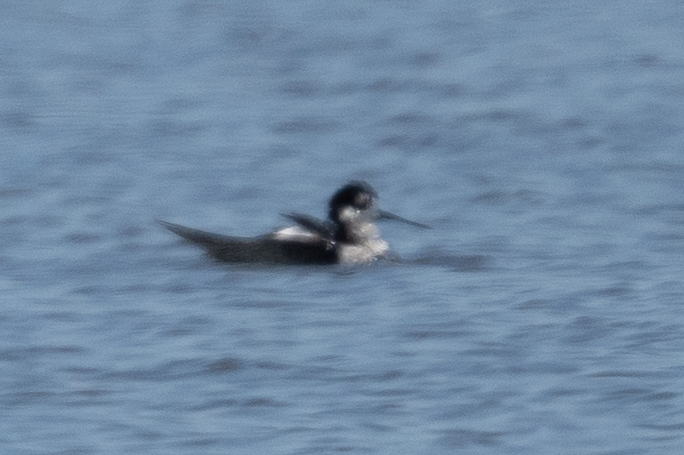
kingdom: Animalia
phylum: Chordata
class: Aves
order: Charadriiformes
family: Recurvirostridae
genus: Himantopus
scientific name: Himantopus mexicanus
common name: Black-necked stilt
